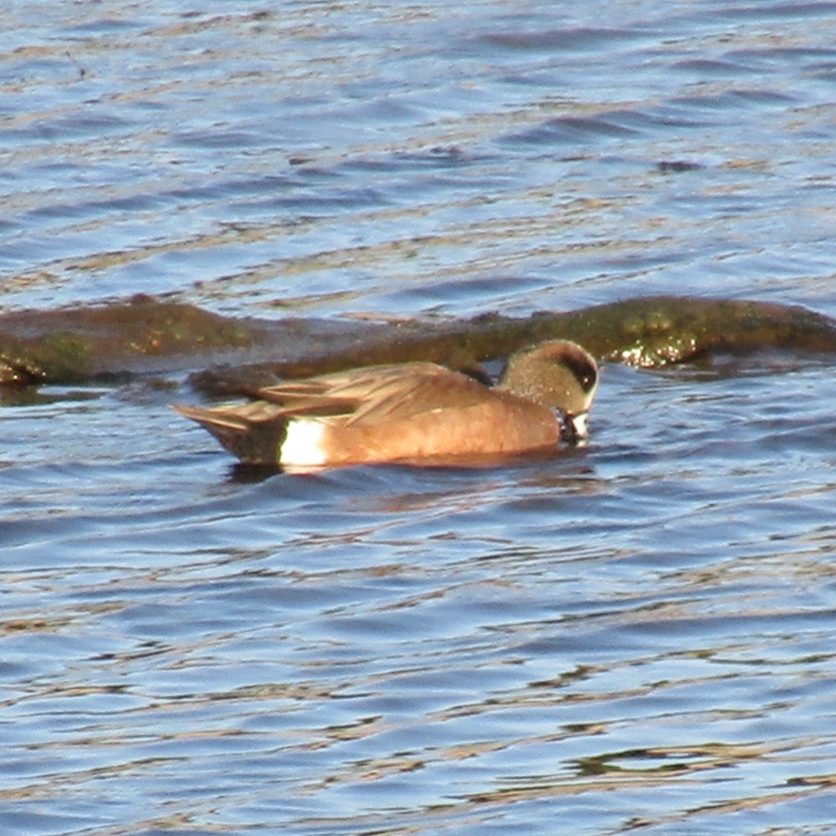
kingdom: Animalia
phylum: Chordata
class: Aves
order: Anseriformes
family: Anatidae
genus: Mareca
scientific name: Mareca americana
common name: American wigeon
